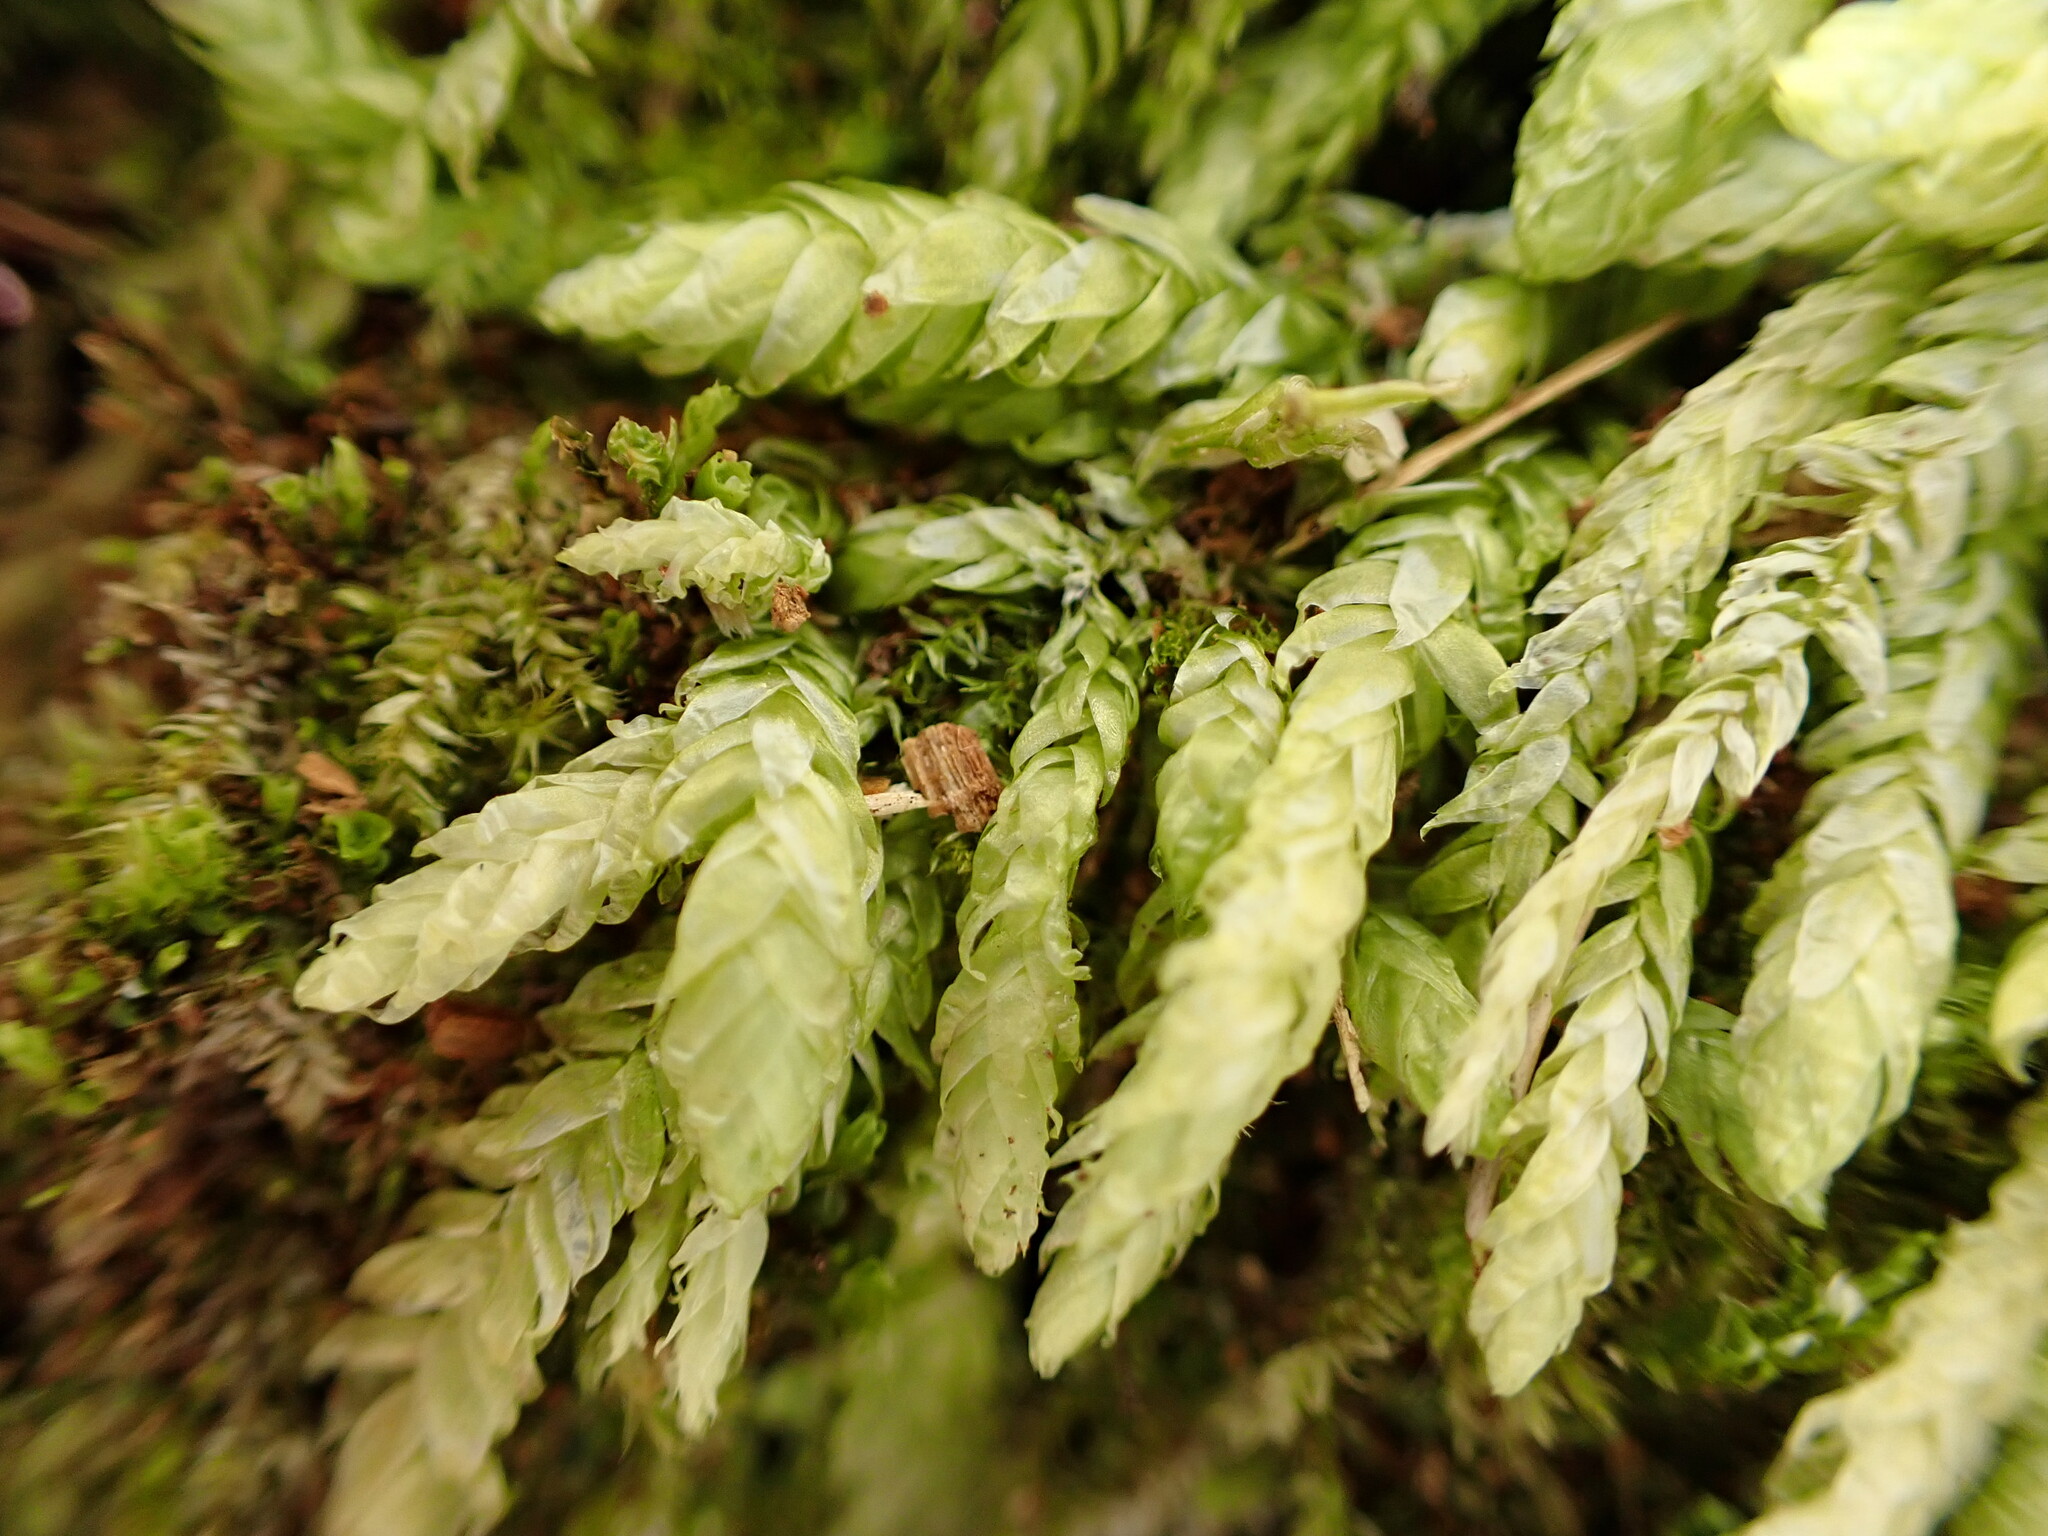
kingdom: Plantae
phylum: Bryophyta
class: Bryopsida
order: Hypnales
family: Plagiotheciaceae
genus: Plagiothecium
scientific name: Plagiothecium undulatum
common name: Waved silk-moss
